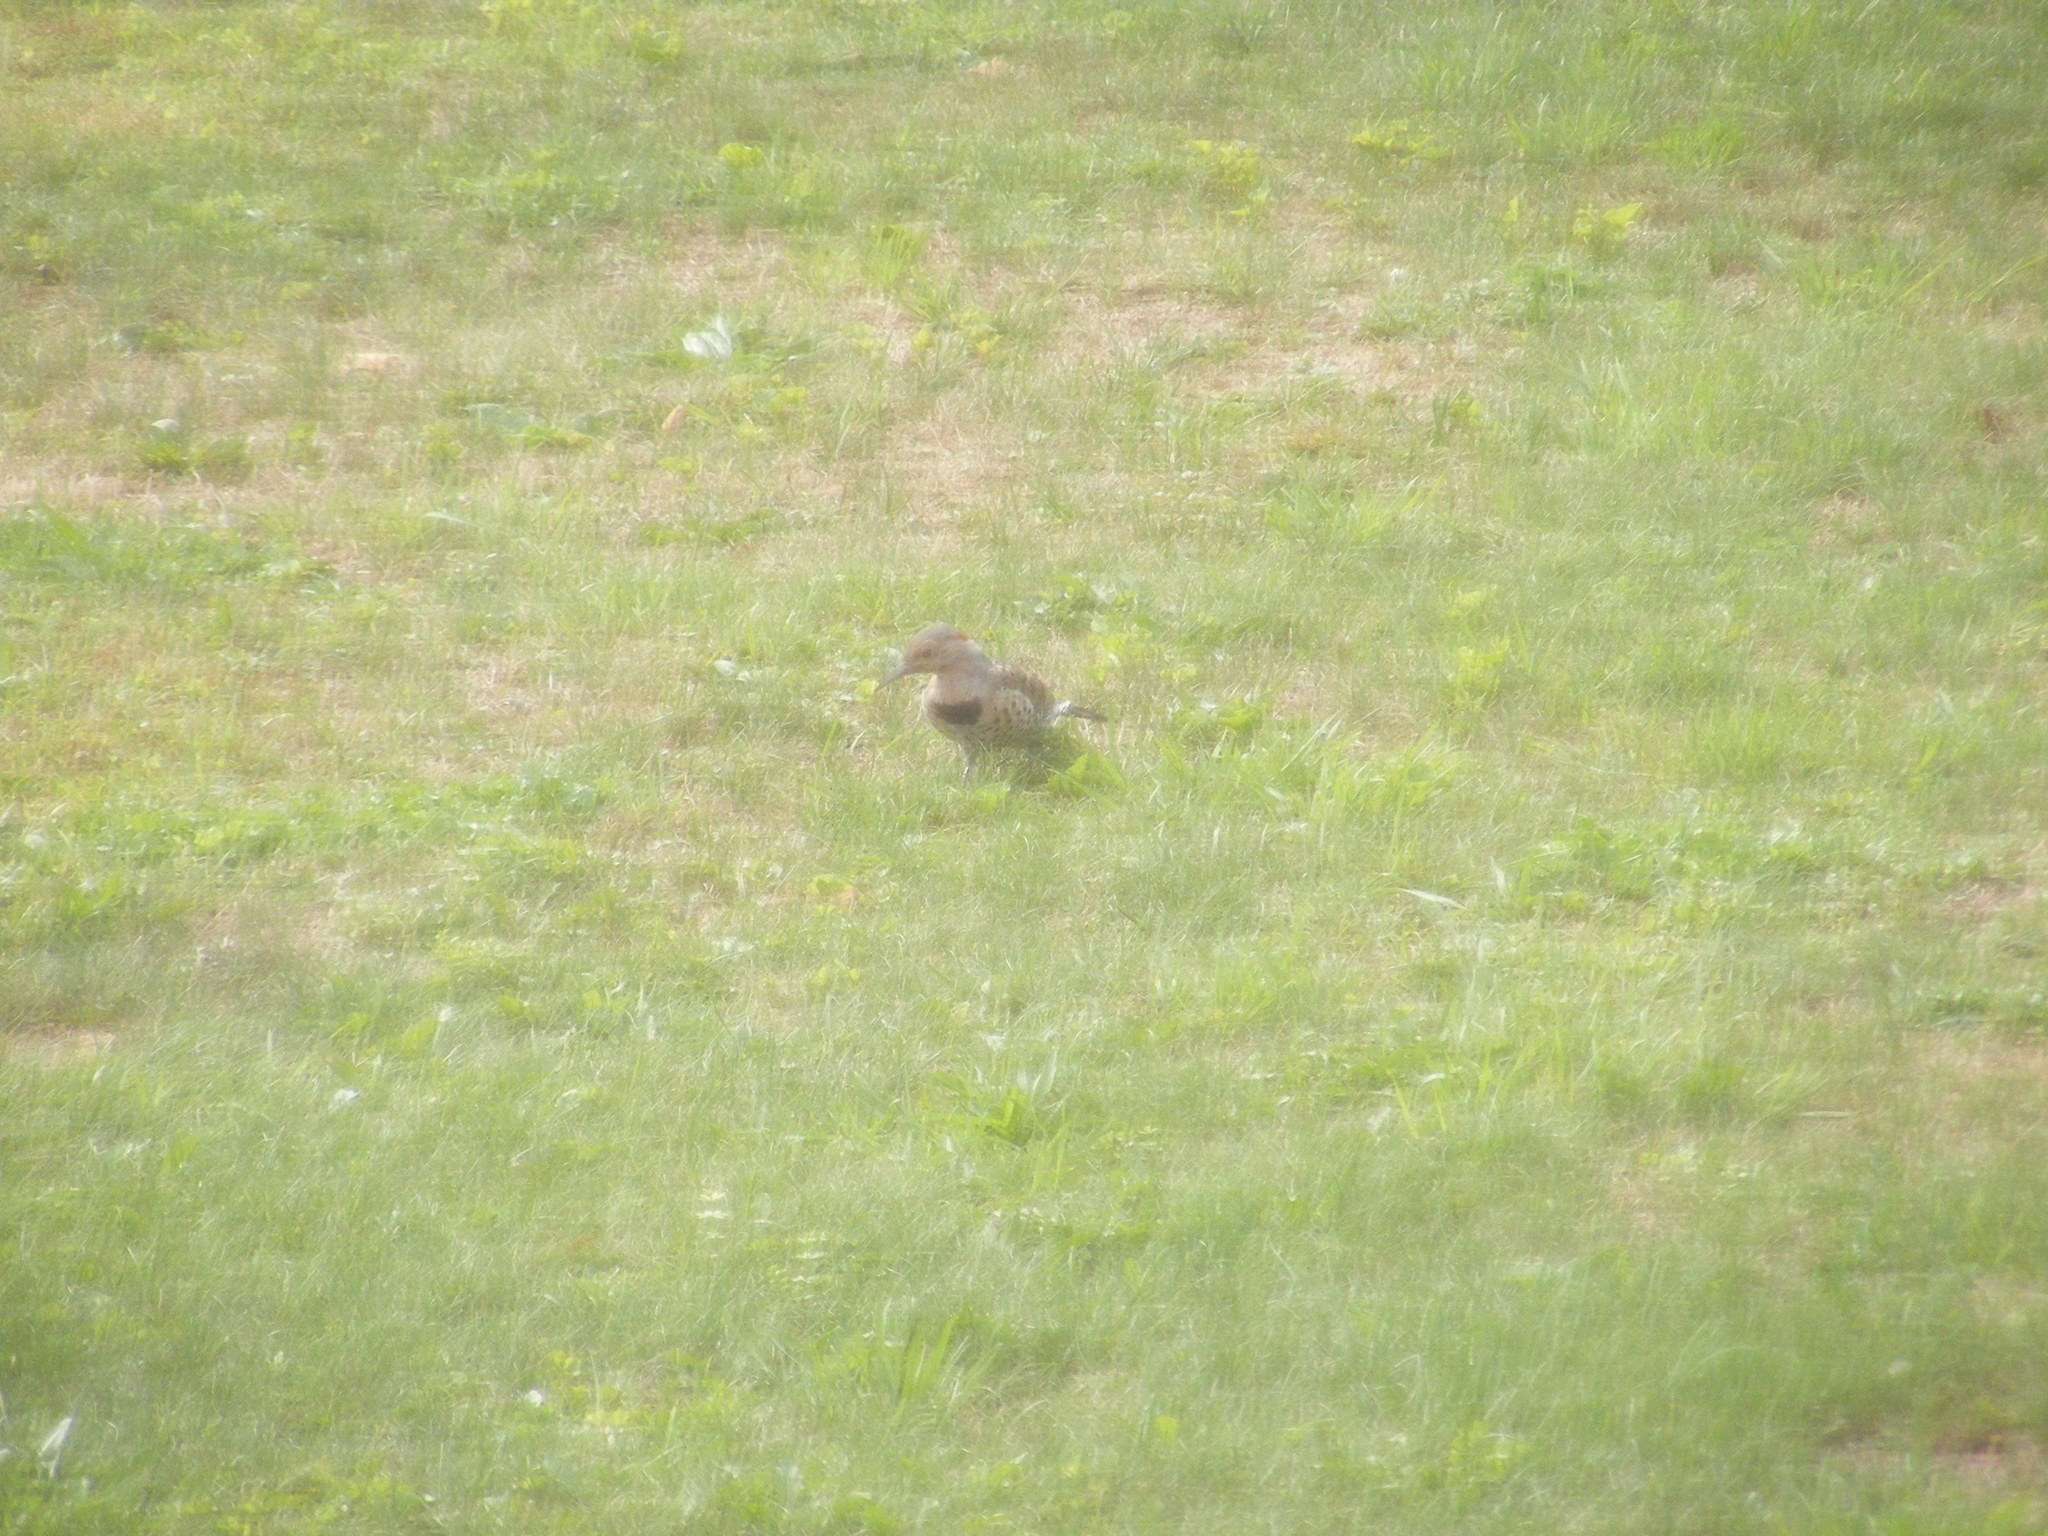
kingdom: Animalia
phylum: Chordata
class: Aves
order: Piciformes
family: Picidae
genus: Colaptes
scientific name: Colaptes auratus
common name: Northern flicker
